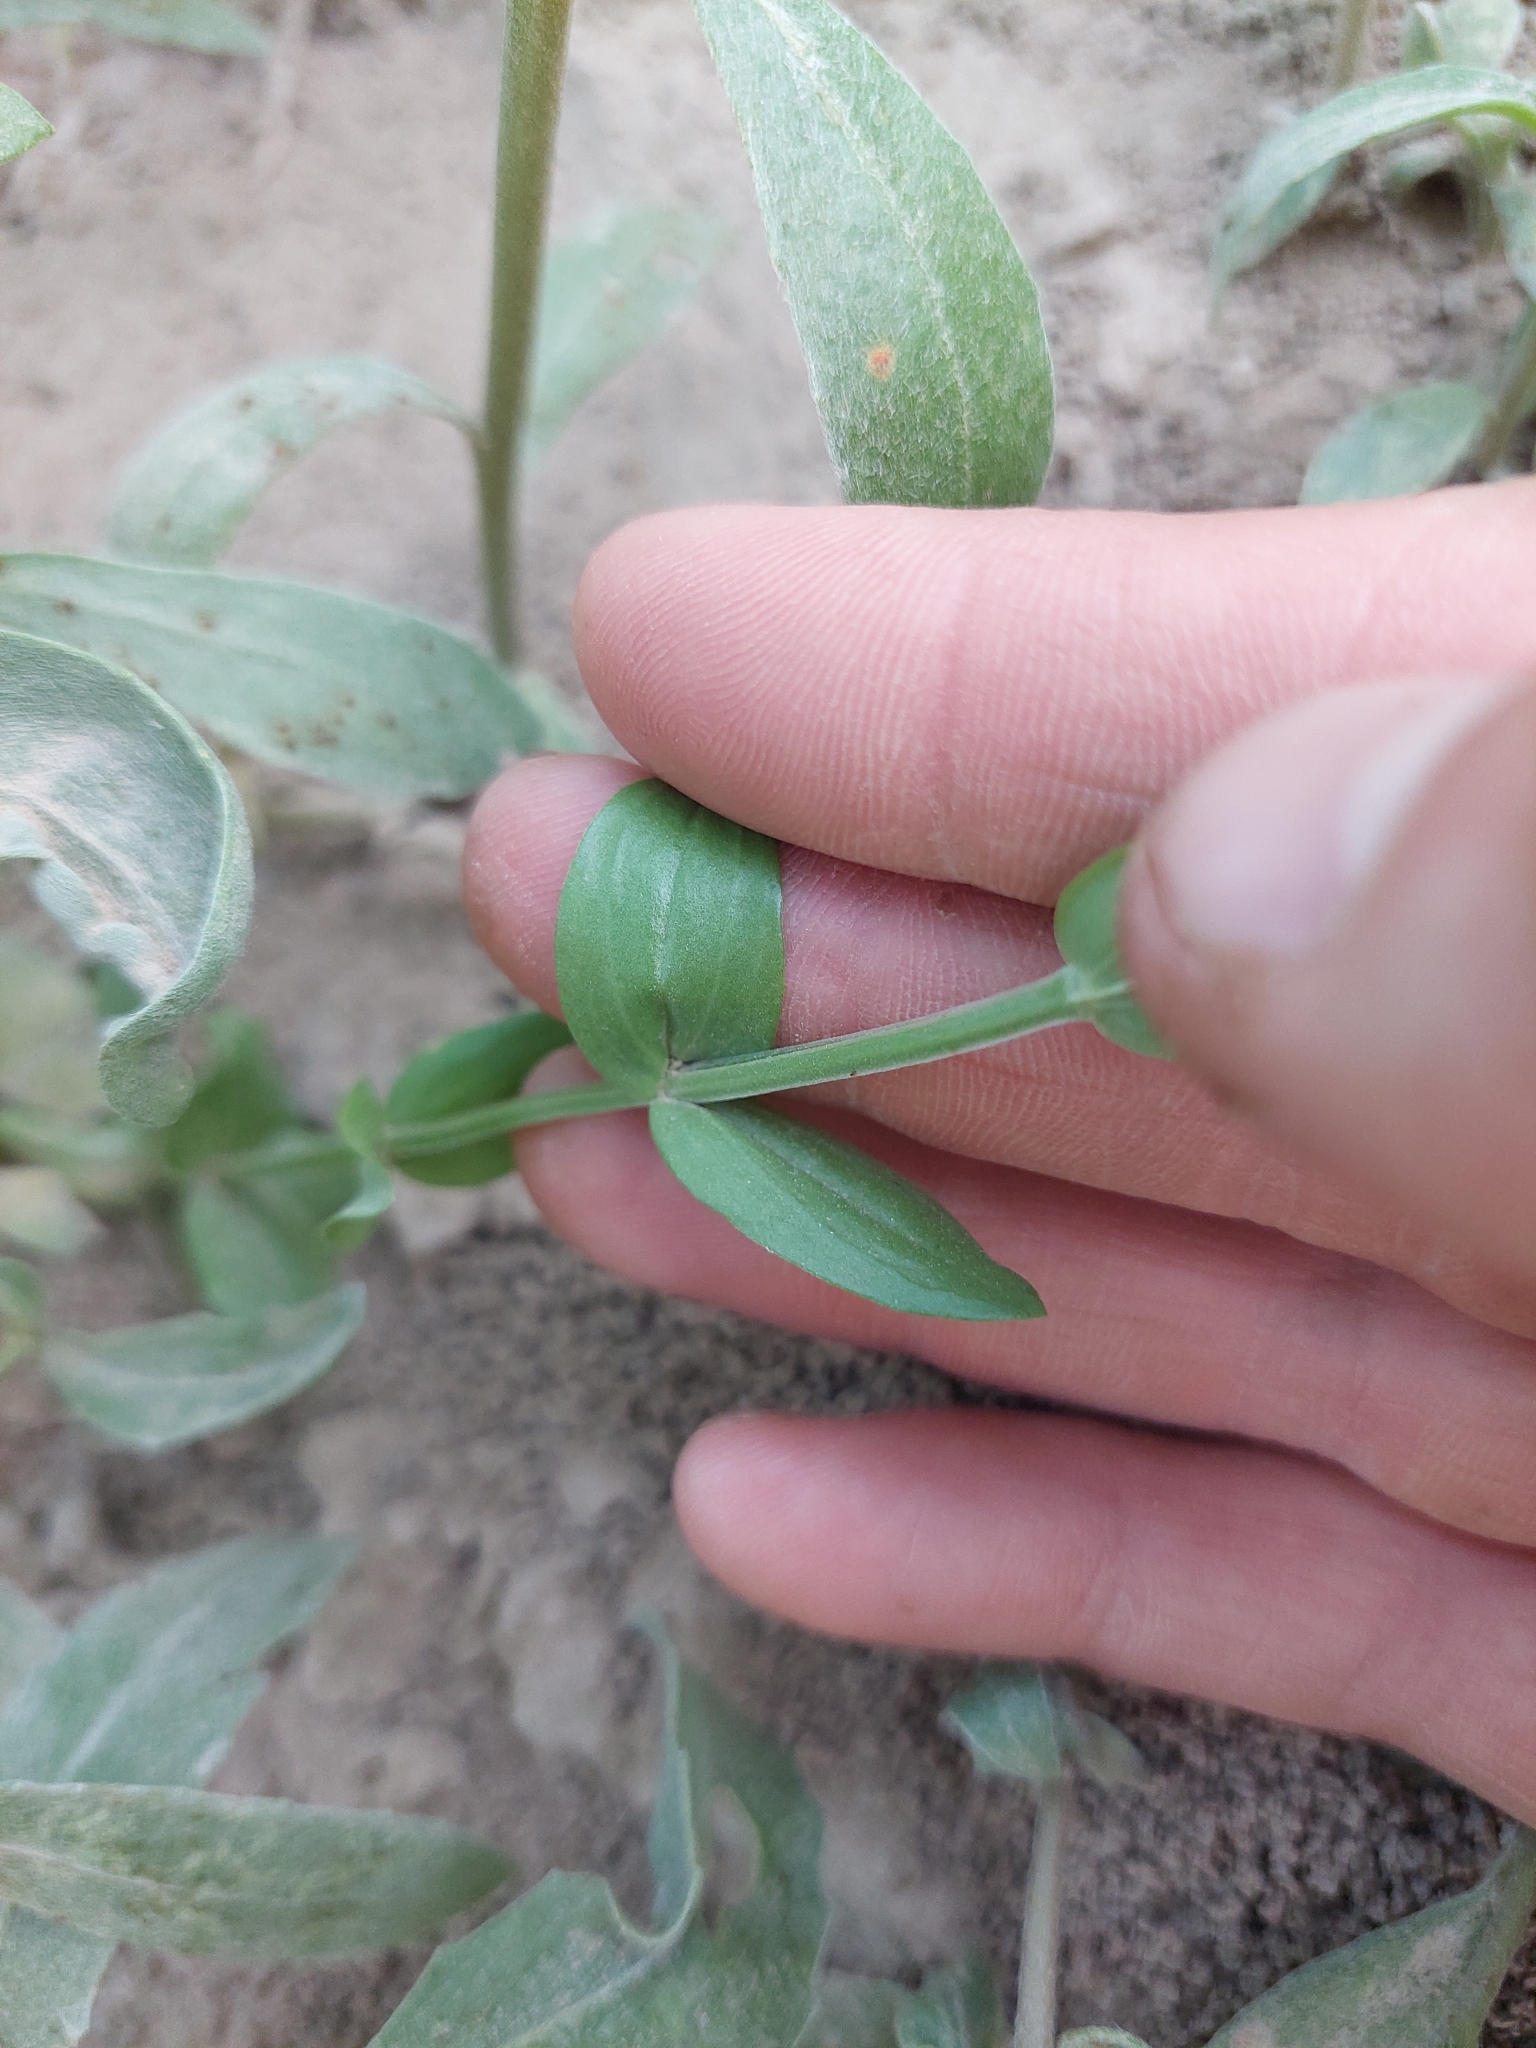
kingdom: Plantae
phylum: Tracheophyta
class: Magnoliopsida
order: Gentianales
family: Gentianaceae
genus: Centaurium
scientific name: Centaurium pulchellum
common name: Lesser centaury
